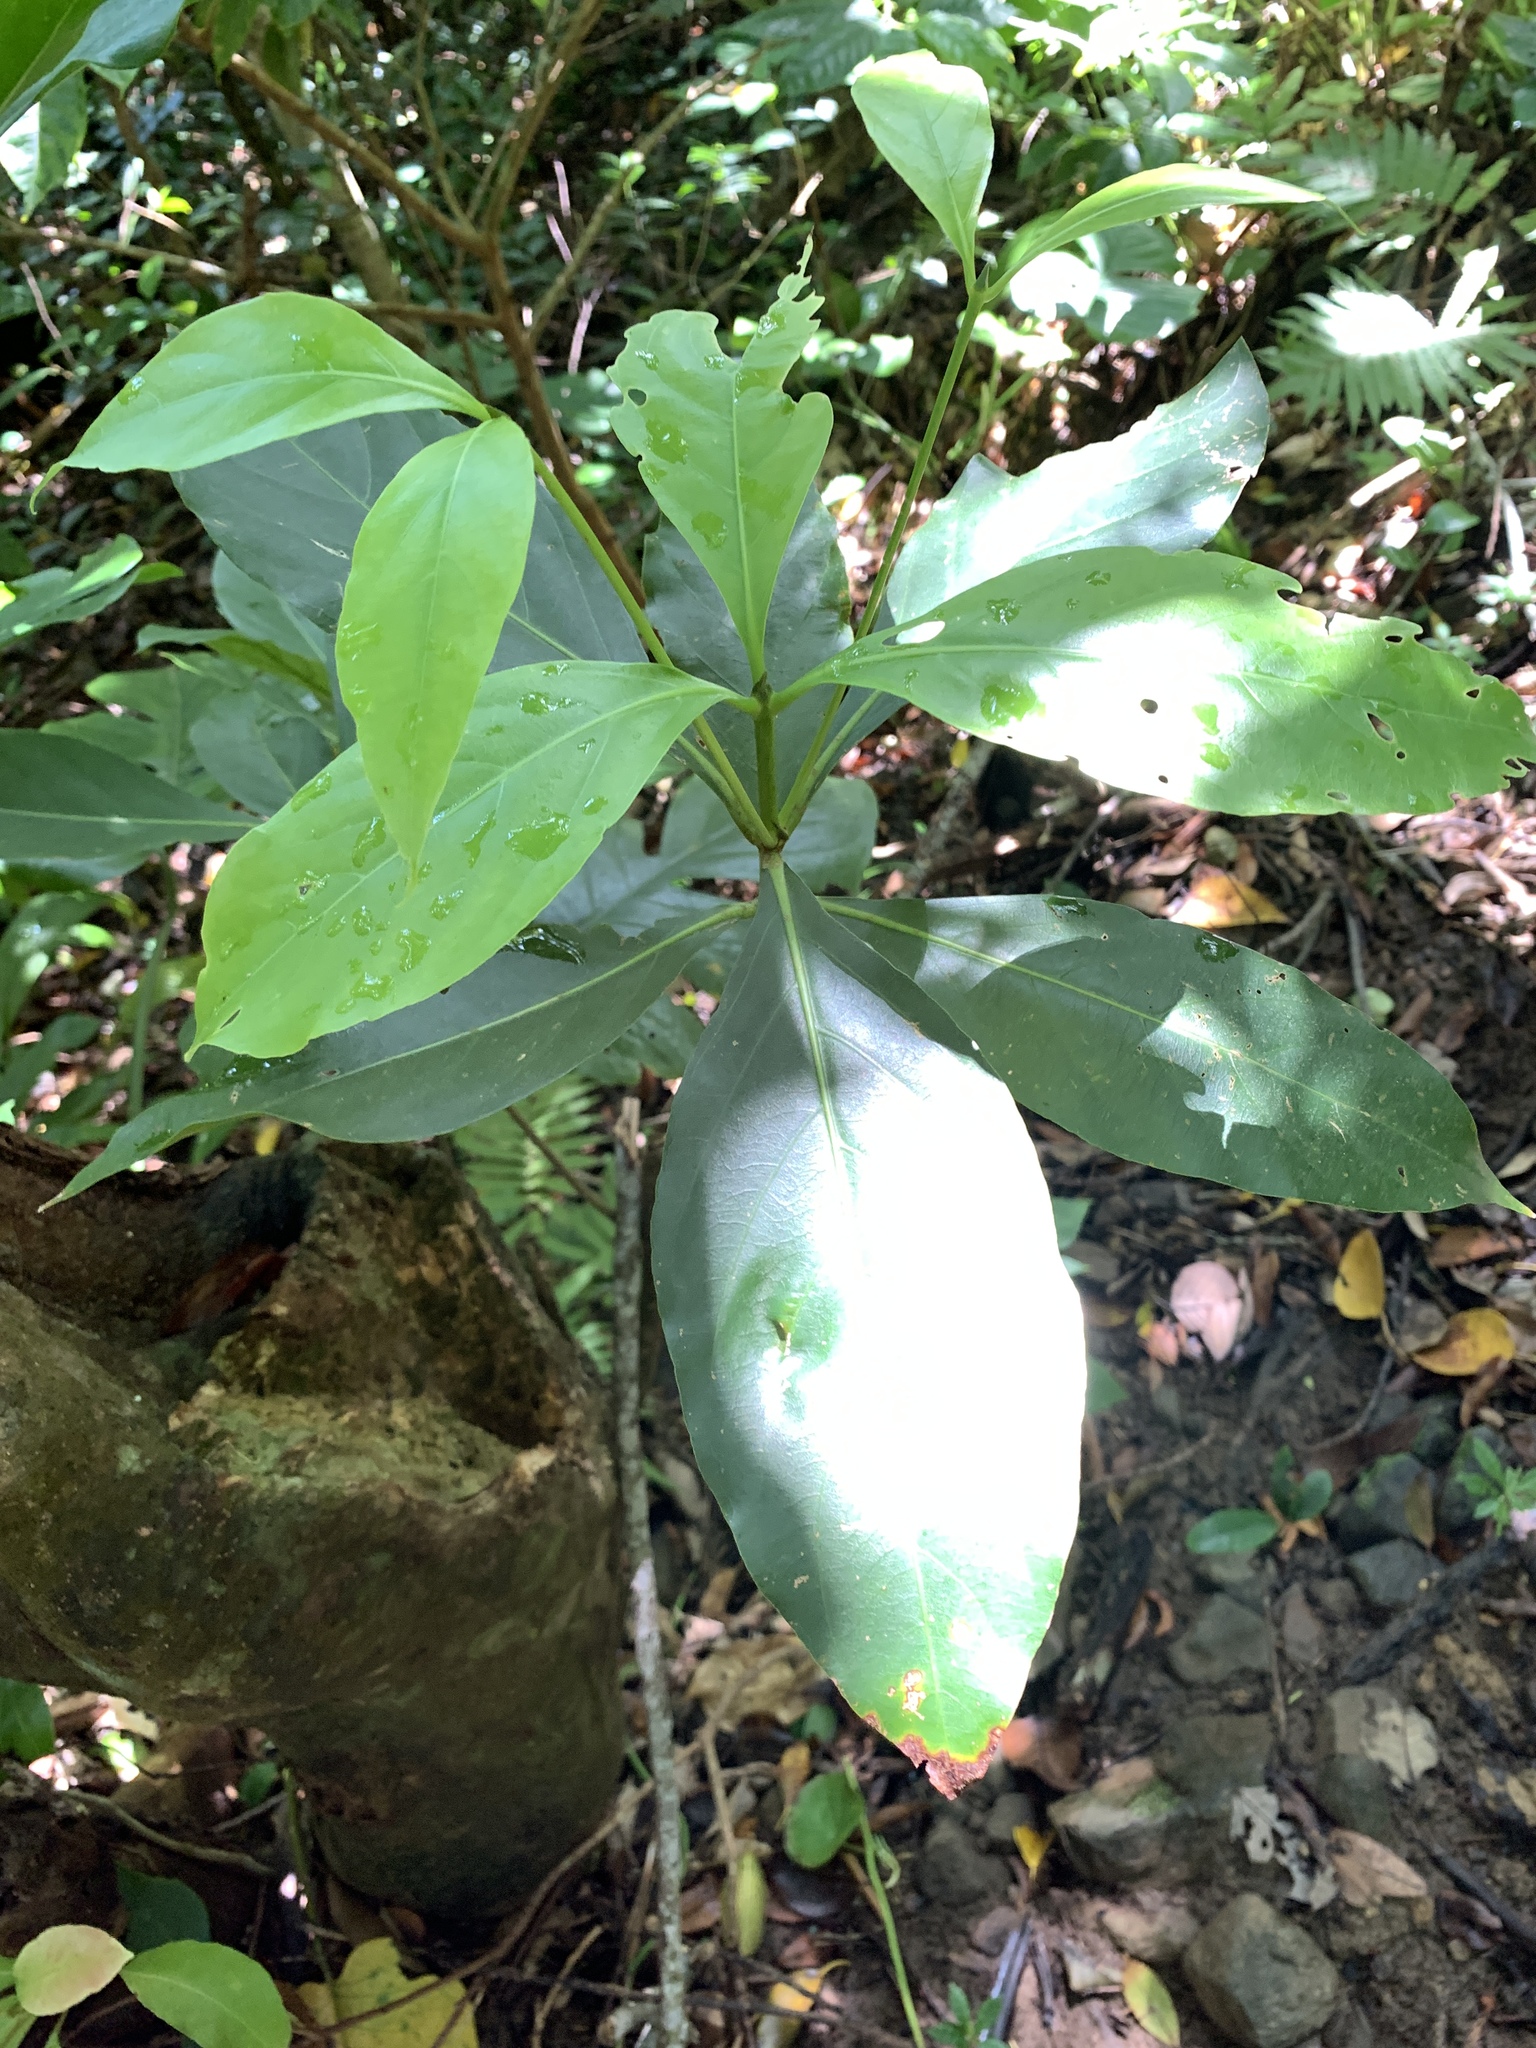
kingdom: Plantae
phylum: Tracheophyta
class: Magnoliopsida
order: Gentianales
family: Rubiaceae
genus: Timonius
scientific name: Timonius arboreus
